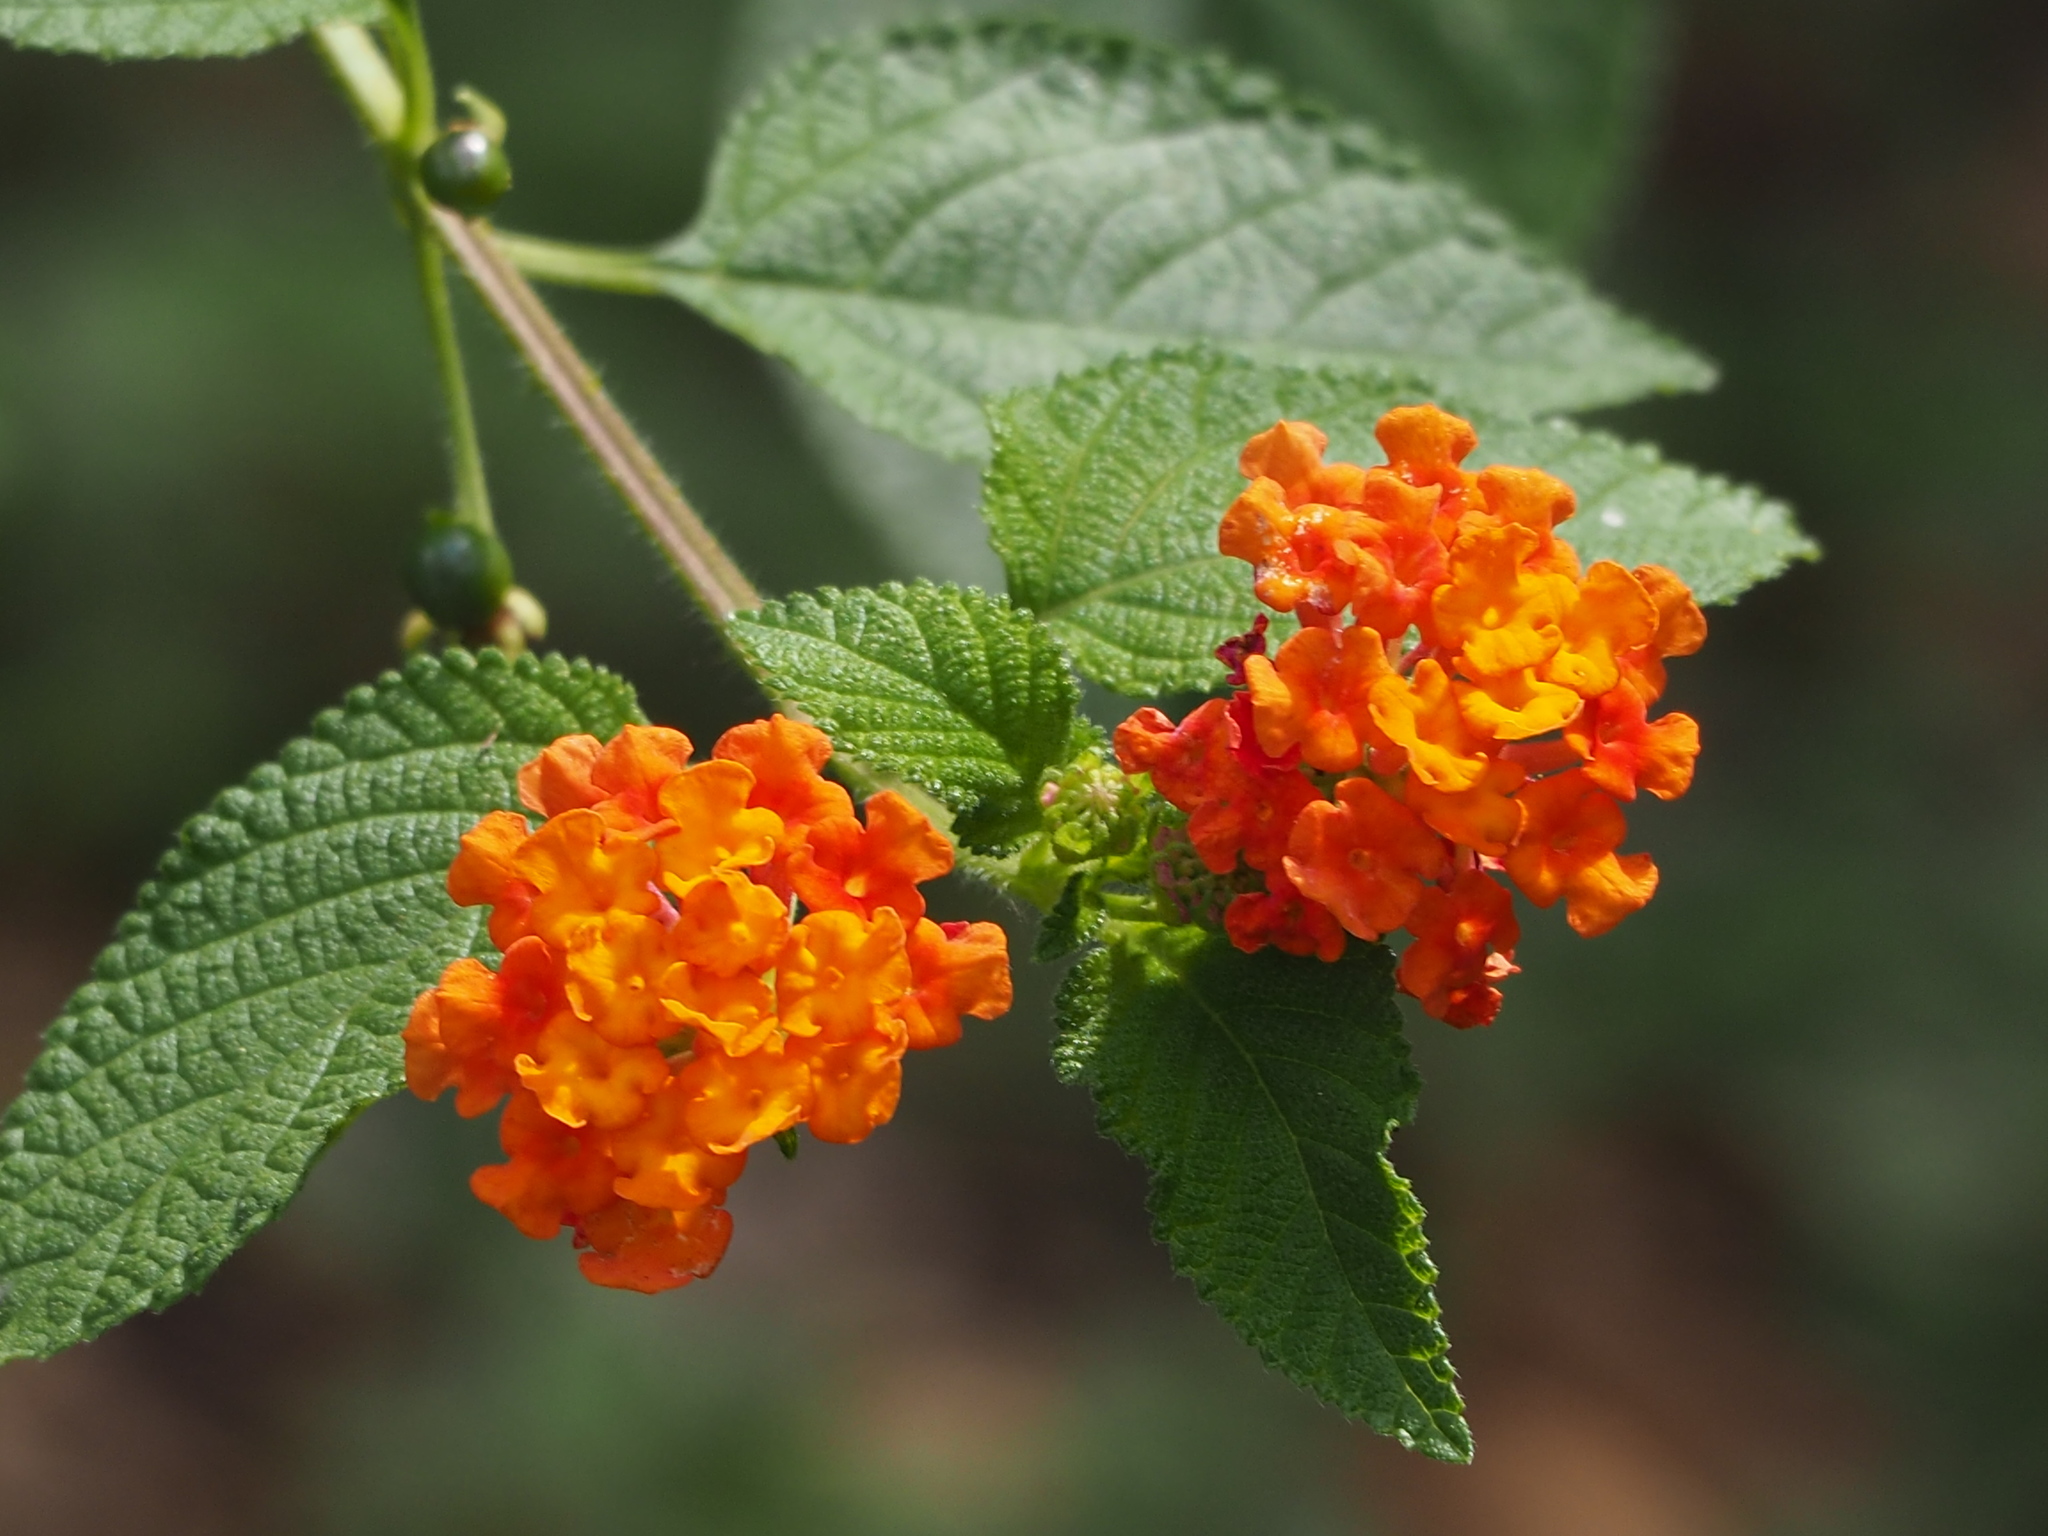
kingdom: Plantae
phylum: Tracheophyta
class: Magnoliopsida
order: Lamiales
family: Verbenaceae
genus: Lantana
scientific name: Lantana camara
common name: Lantana
